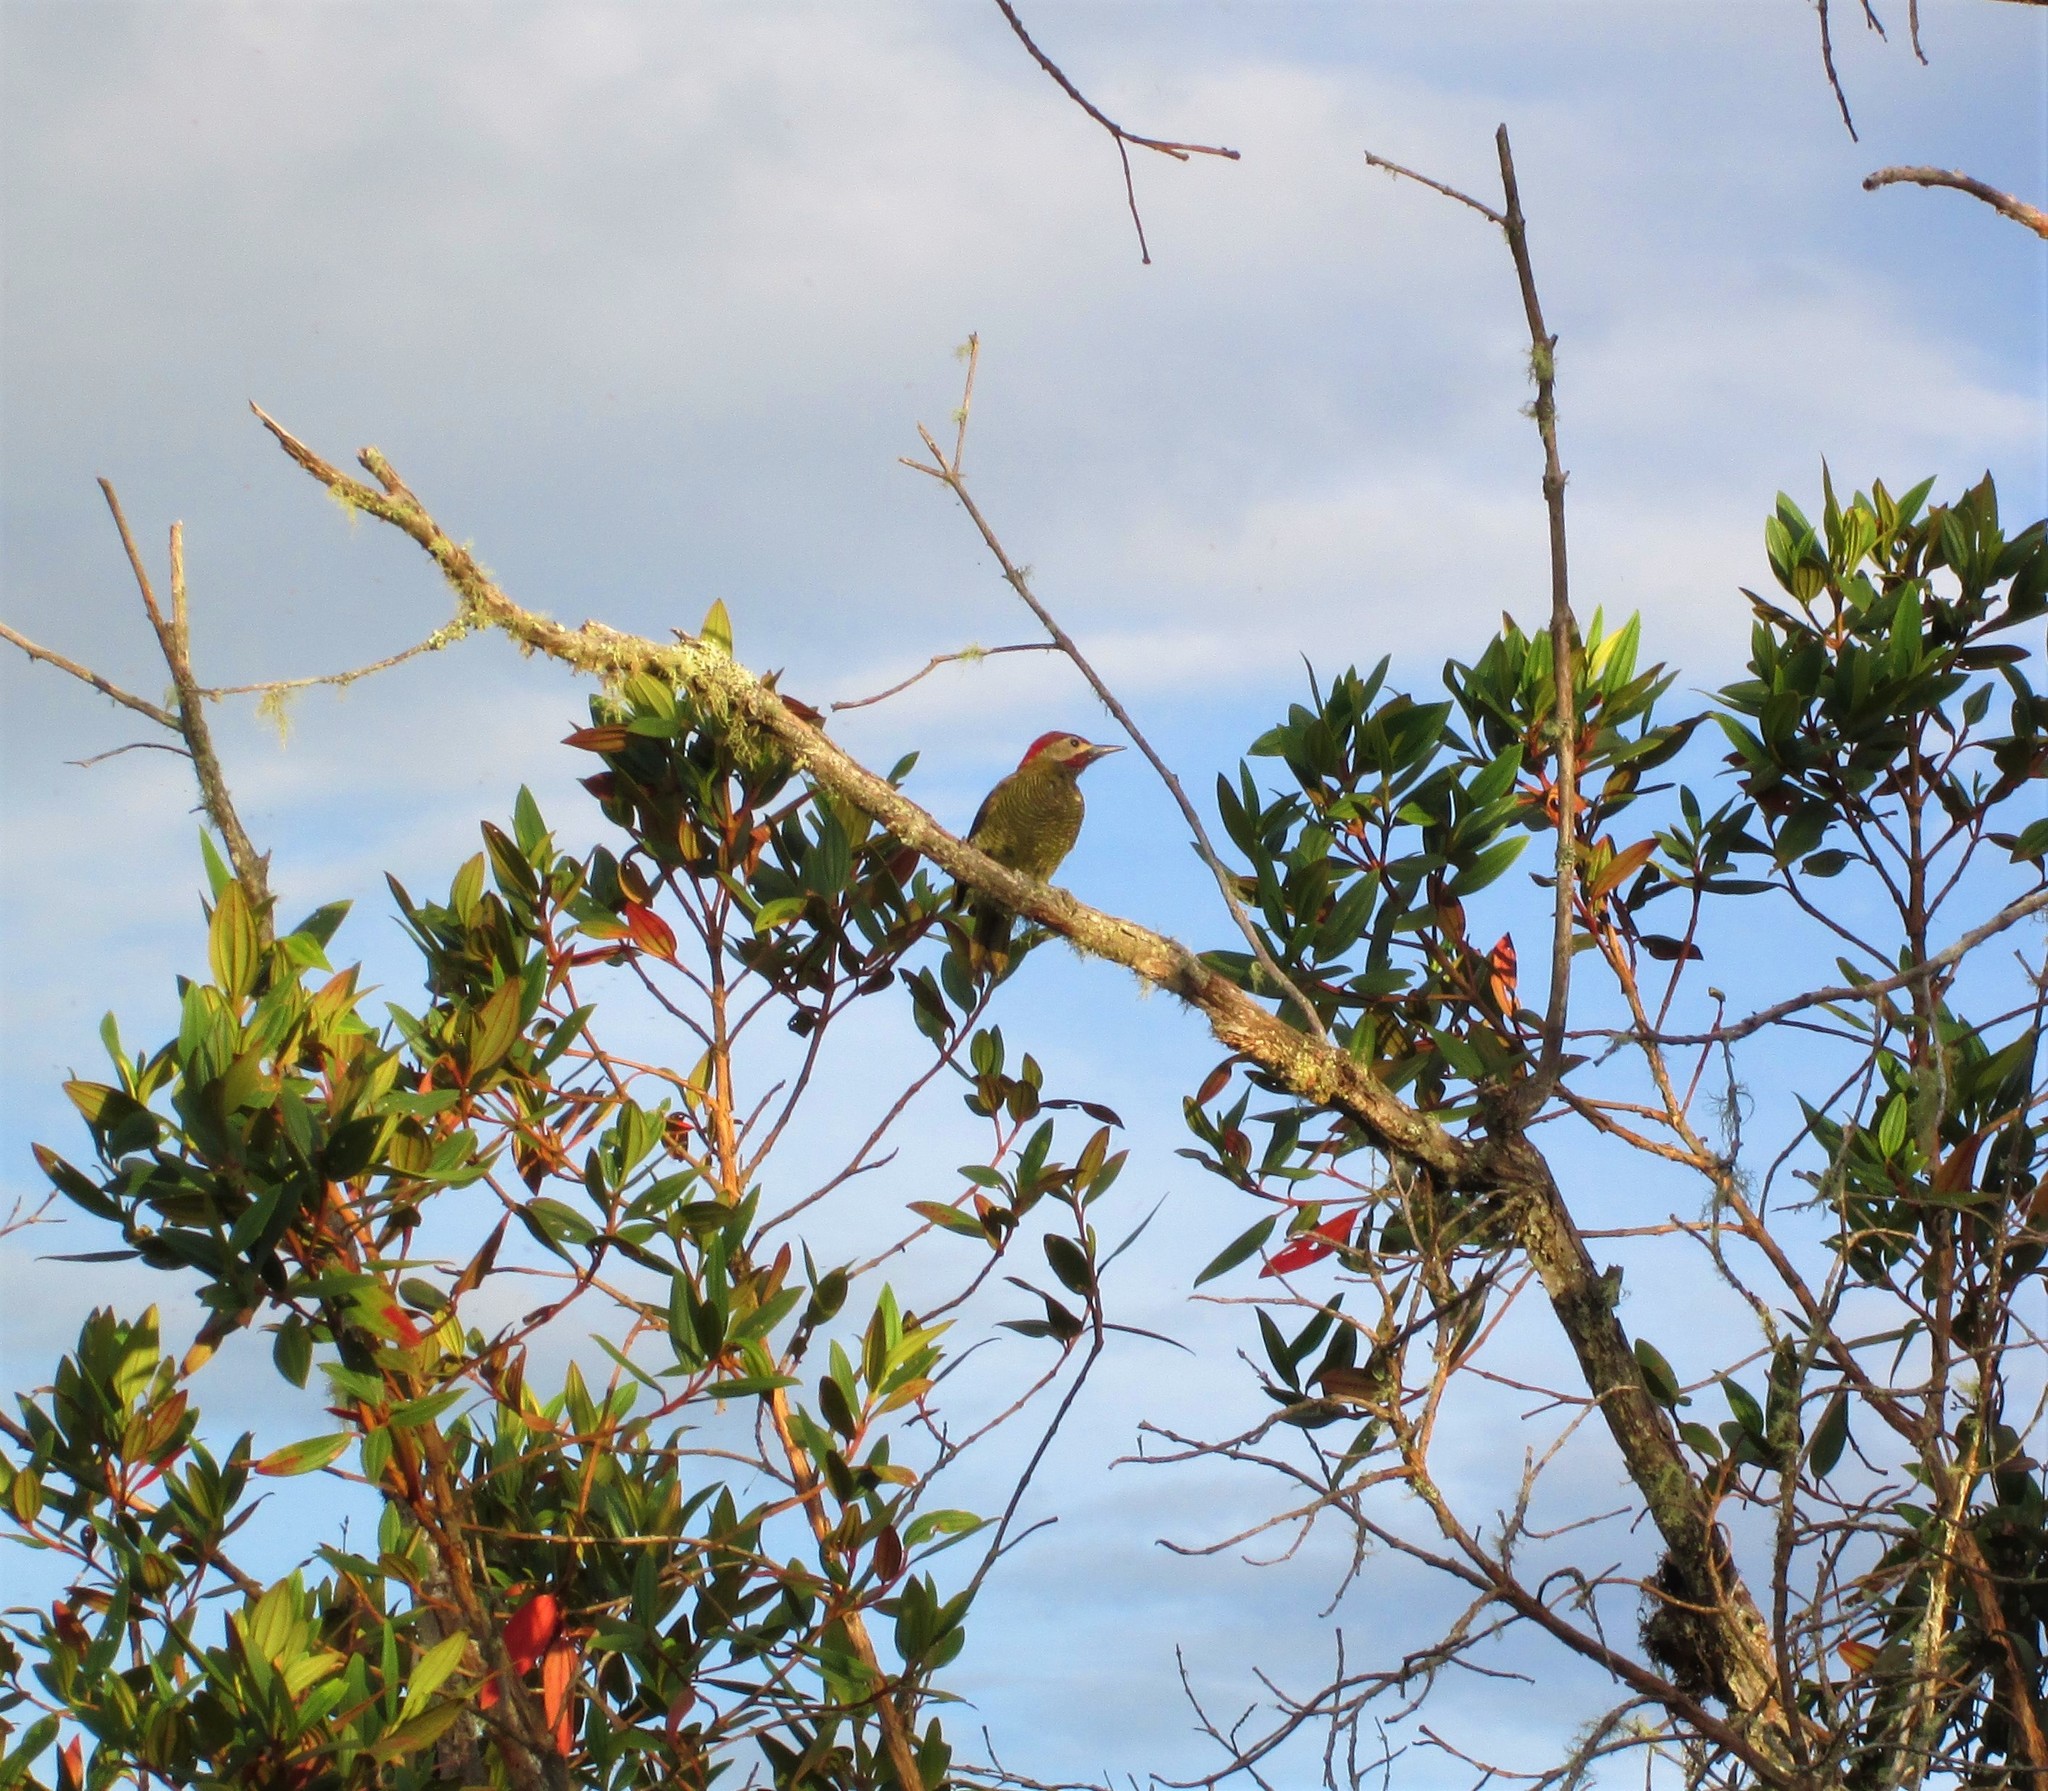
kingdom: Animalia
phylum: Chordata
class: Aves
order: Piciformes
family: Picidae
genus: Colaptes
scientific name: Colaptes rubiginosus
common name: Golden-olive woodpecker
